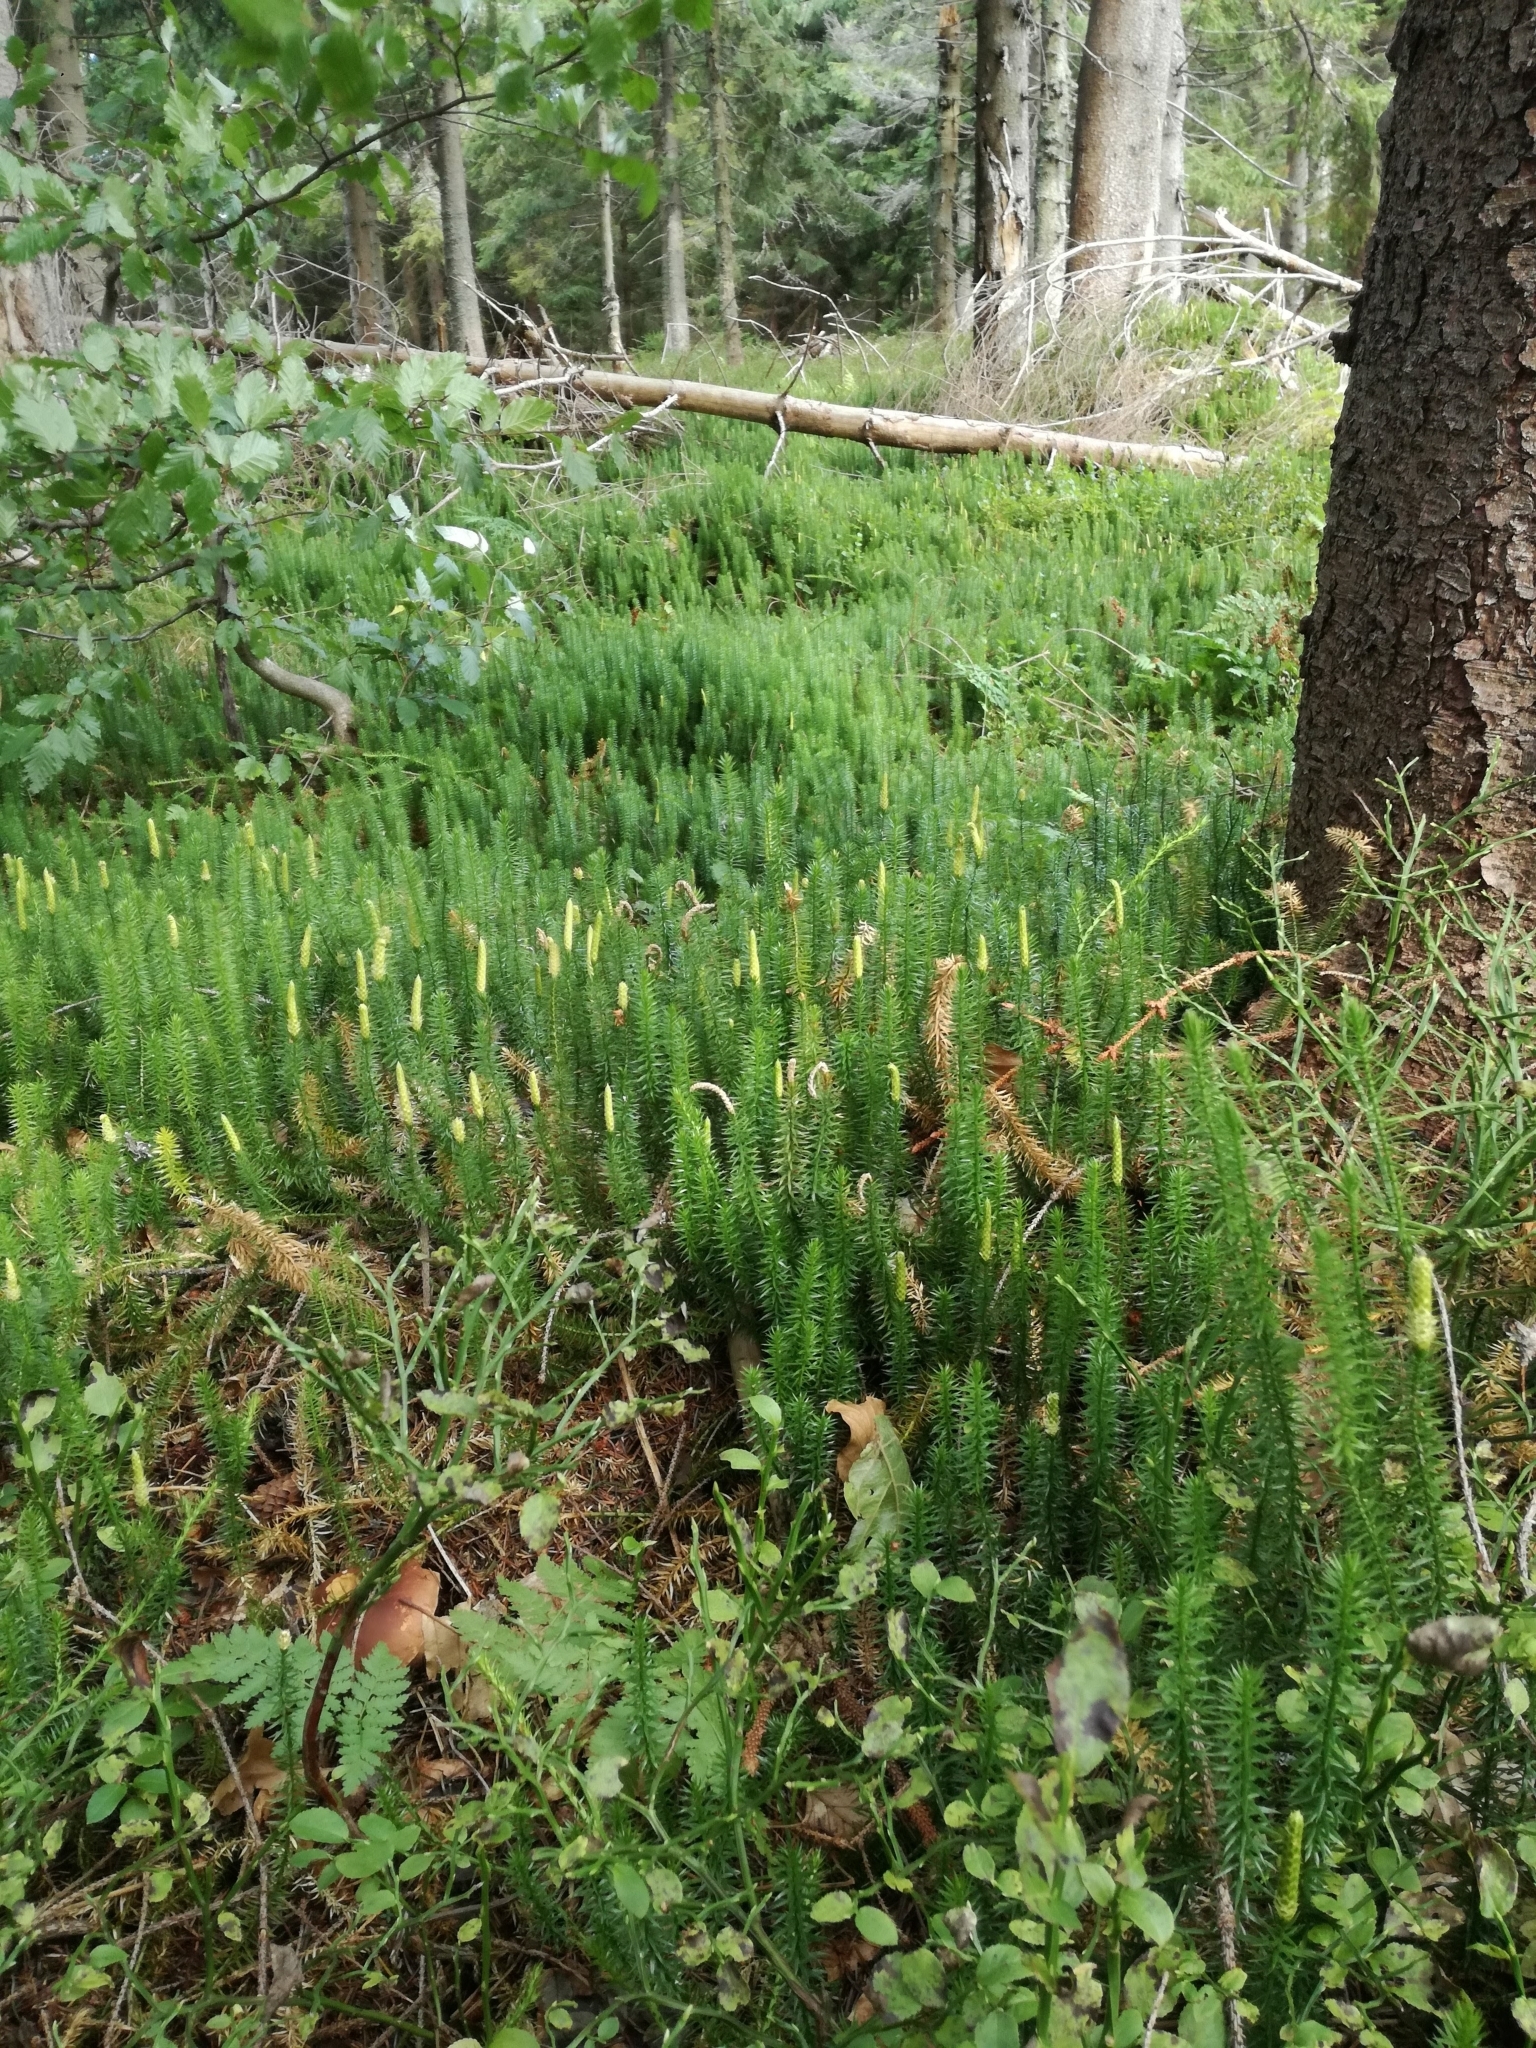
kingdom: Plantae
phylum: Tracheophyta
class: Lycopodiopsida
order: Lycopodiales
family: Lycopodiaceae
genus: Spinulum
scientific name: Spinulum annotinum
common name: Interrupted club-moss
